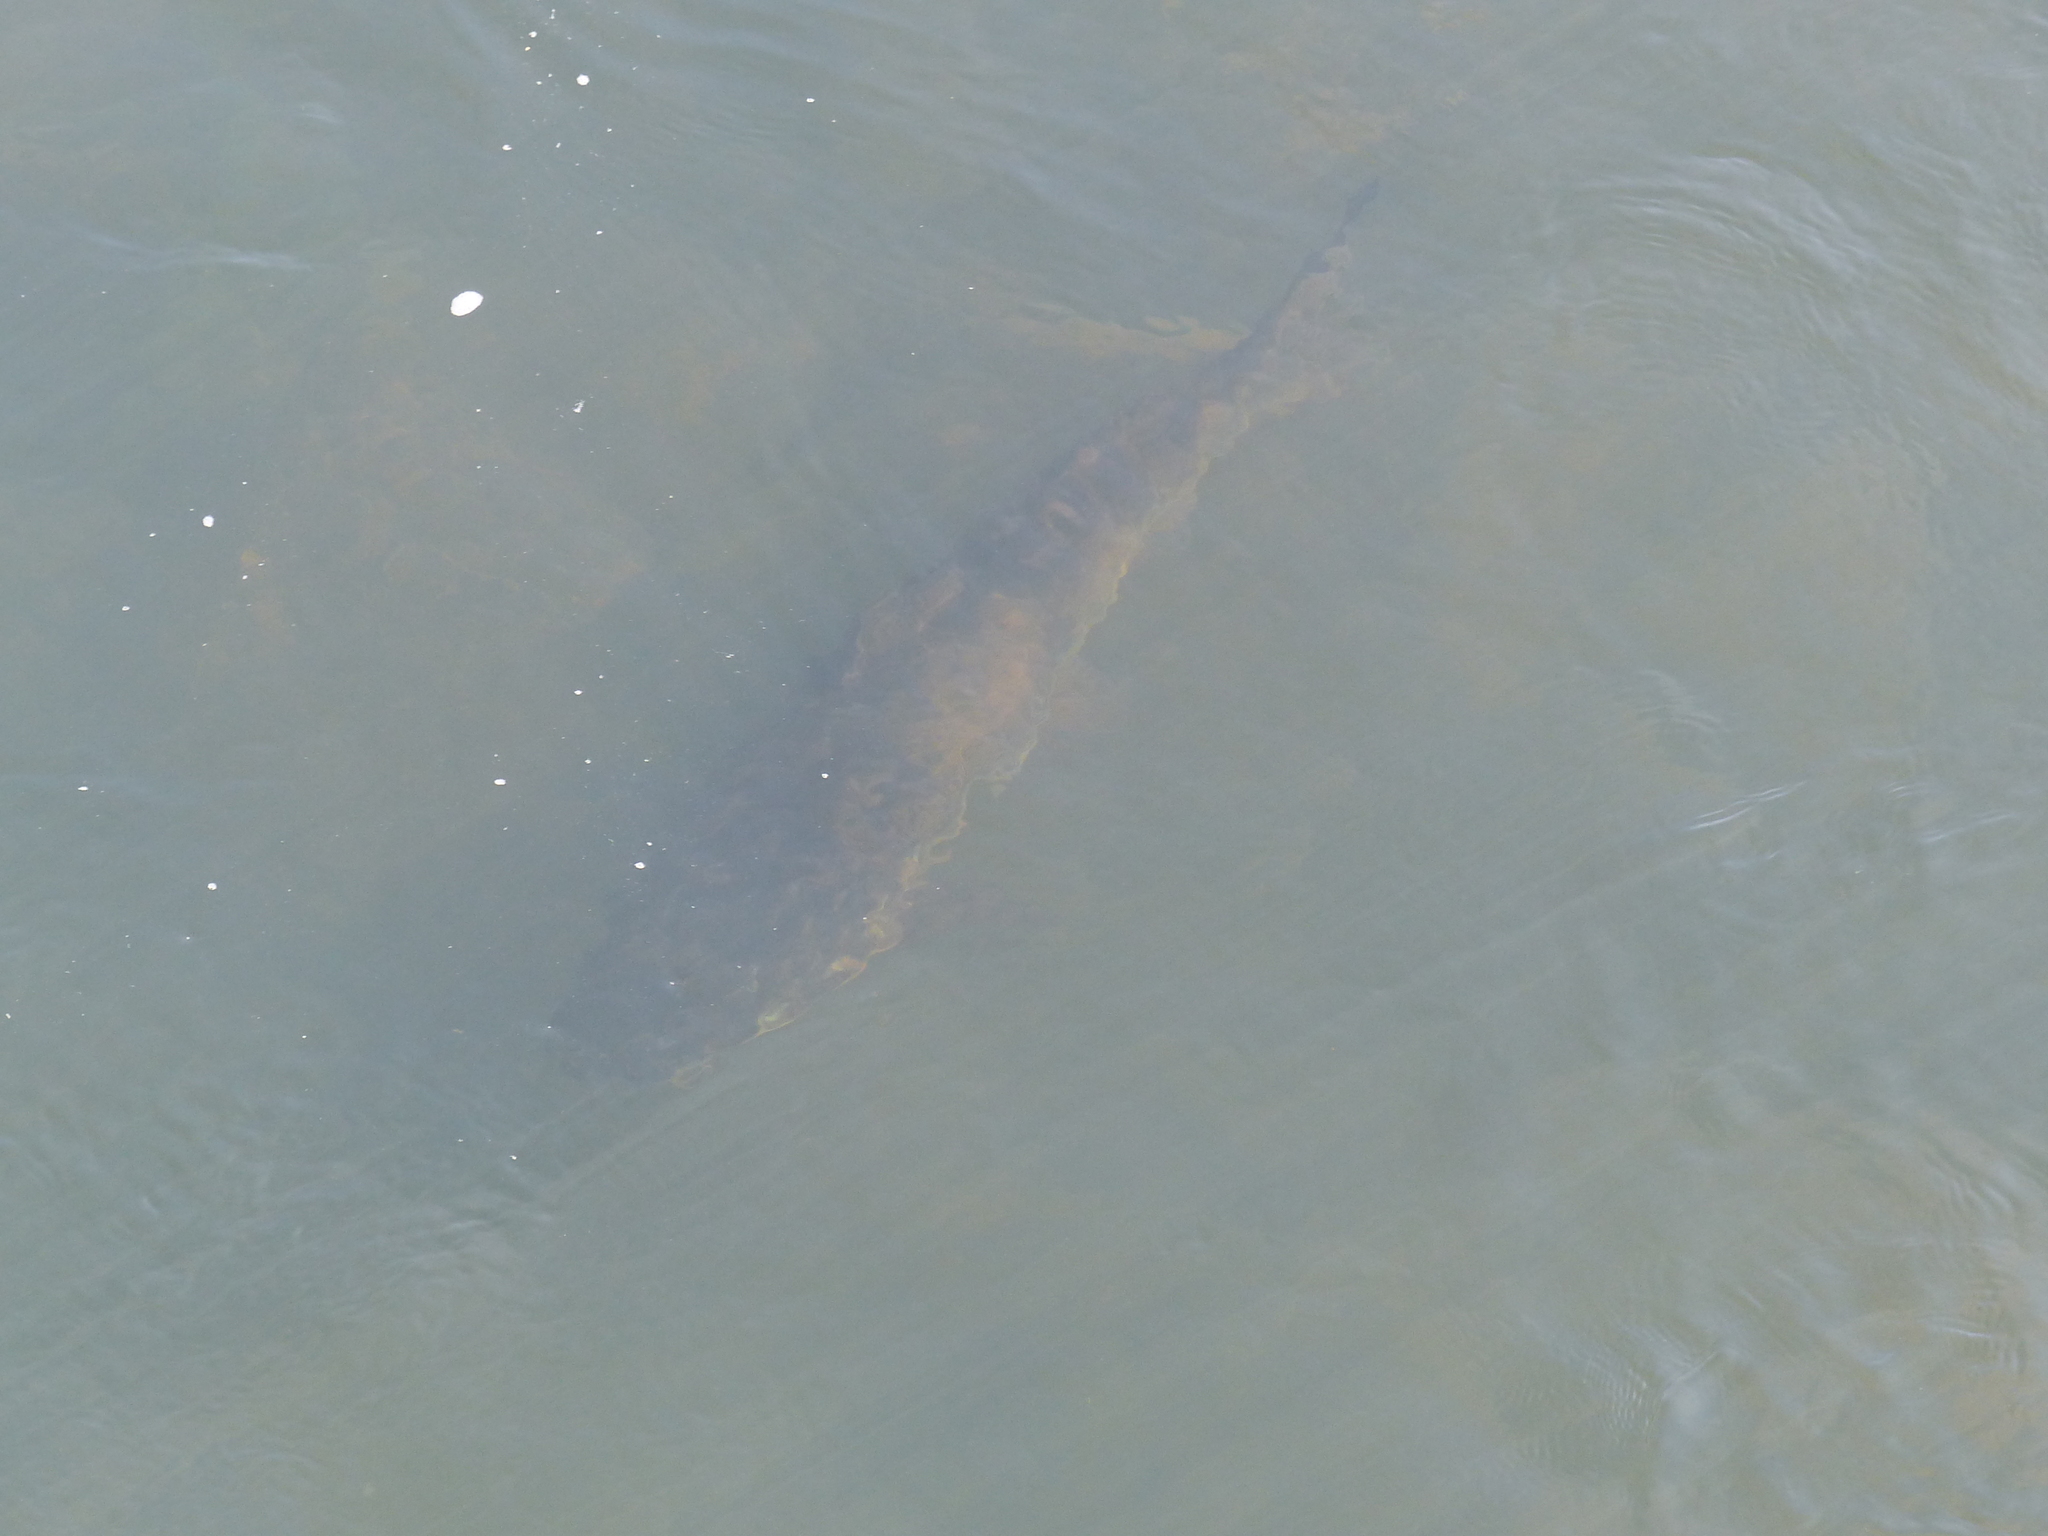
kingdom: Animalia
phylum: Chordata
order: Siluriformes
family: Pimelodidae
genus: Steindachneridion
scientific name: Steindachneridion melanodermatum
